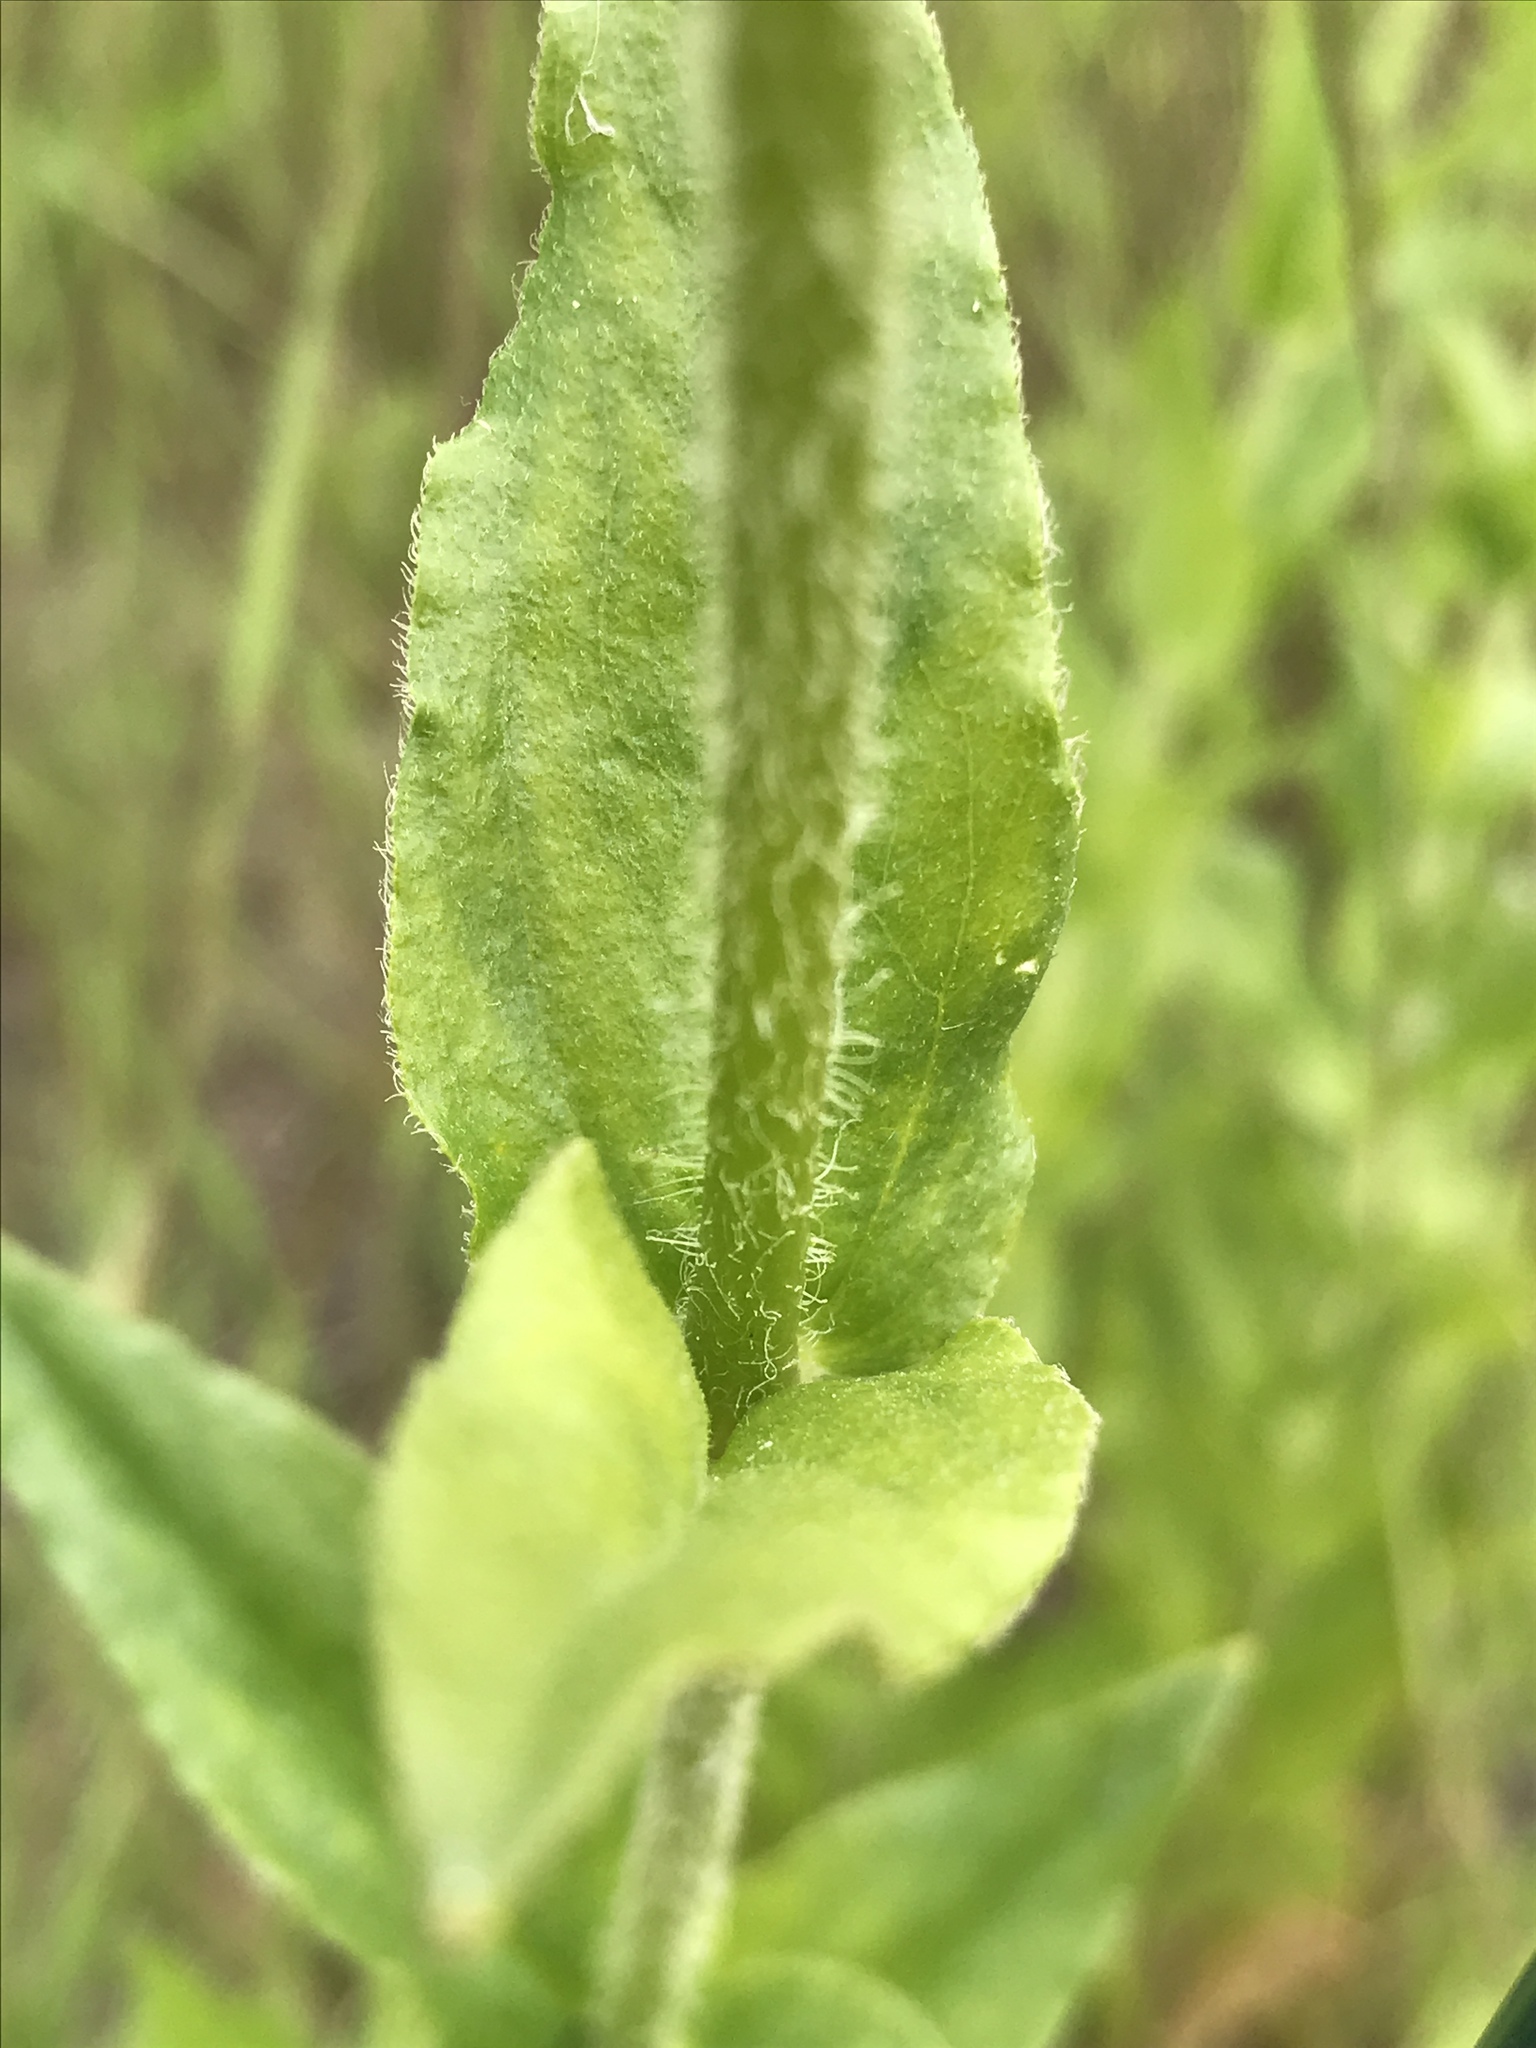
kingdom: Plantae
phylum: Tracheophyta
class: Magnoliopsida
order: Caryophyllales
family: Caryophyllaceae
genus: Silene
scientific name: Silene chalcedonica
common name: Maltese-cross
